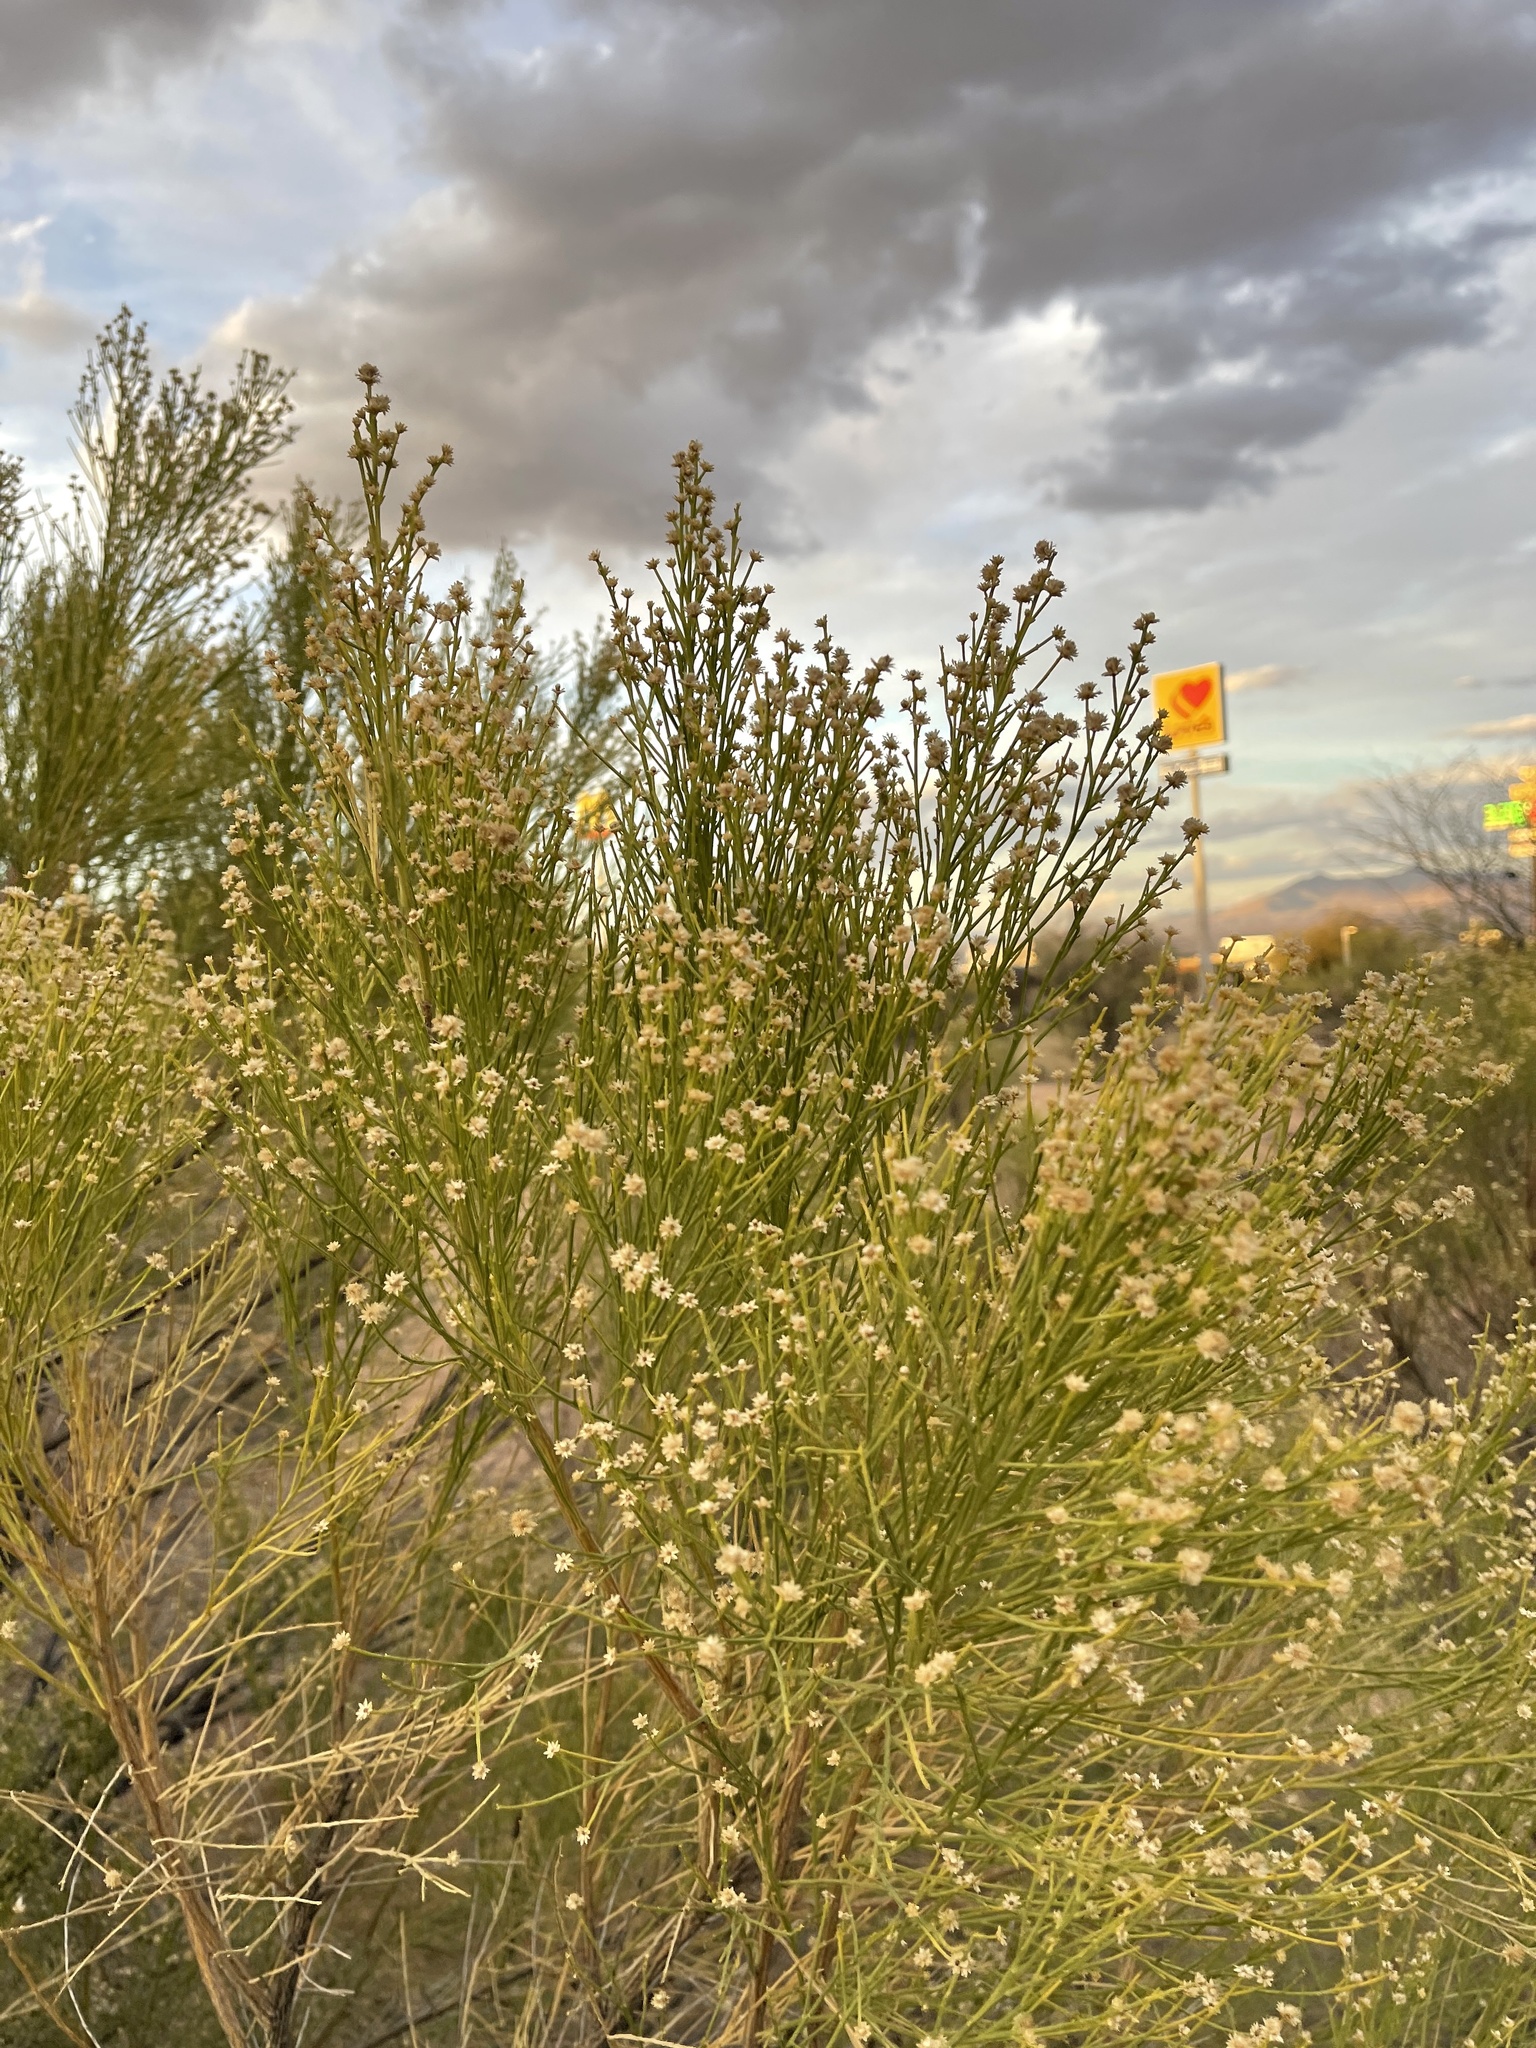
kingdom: Plantae
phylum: Tracheophyta
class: Magnoliopsida
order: Asterales
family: Asteraceae
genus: Baccharis
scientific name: Baccharis sarothroides
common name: Desert-broom
